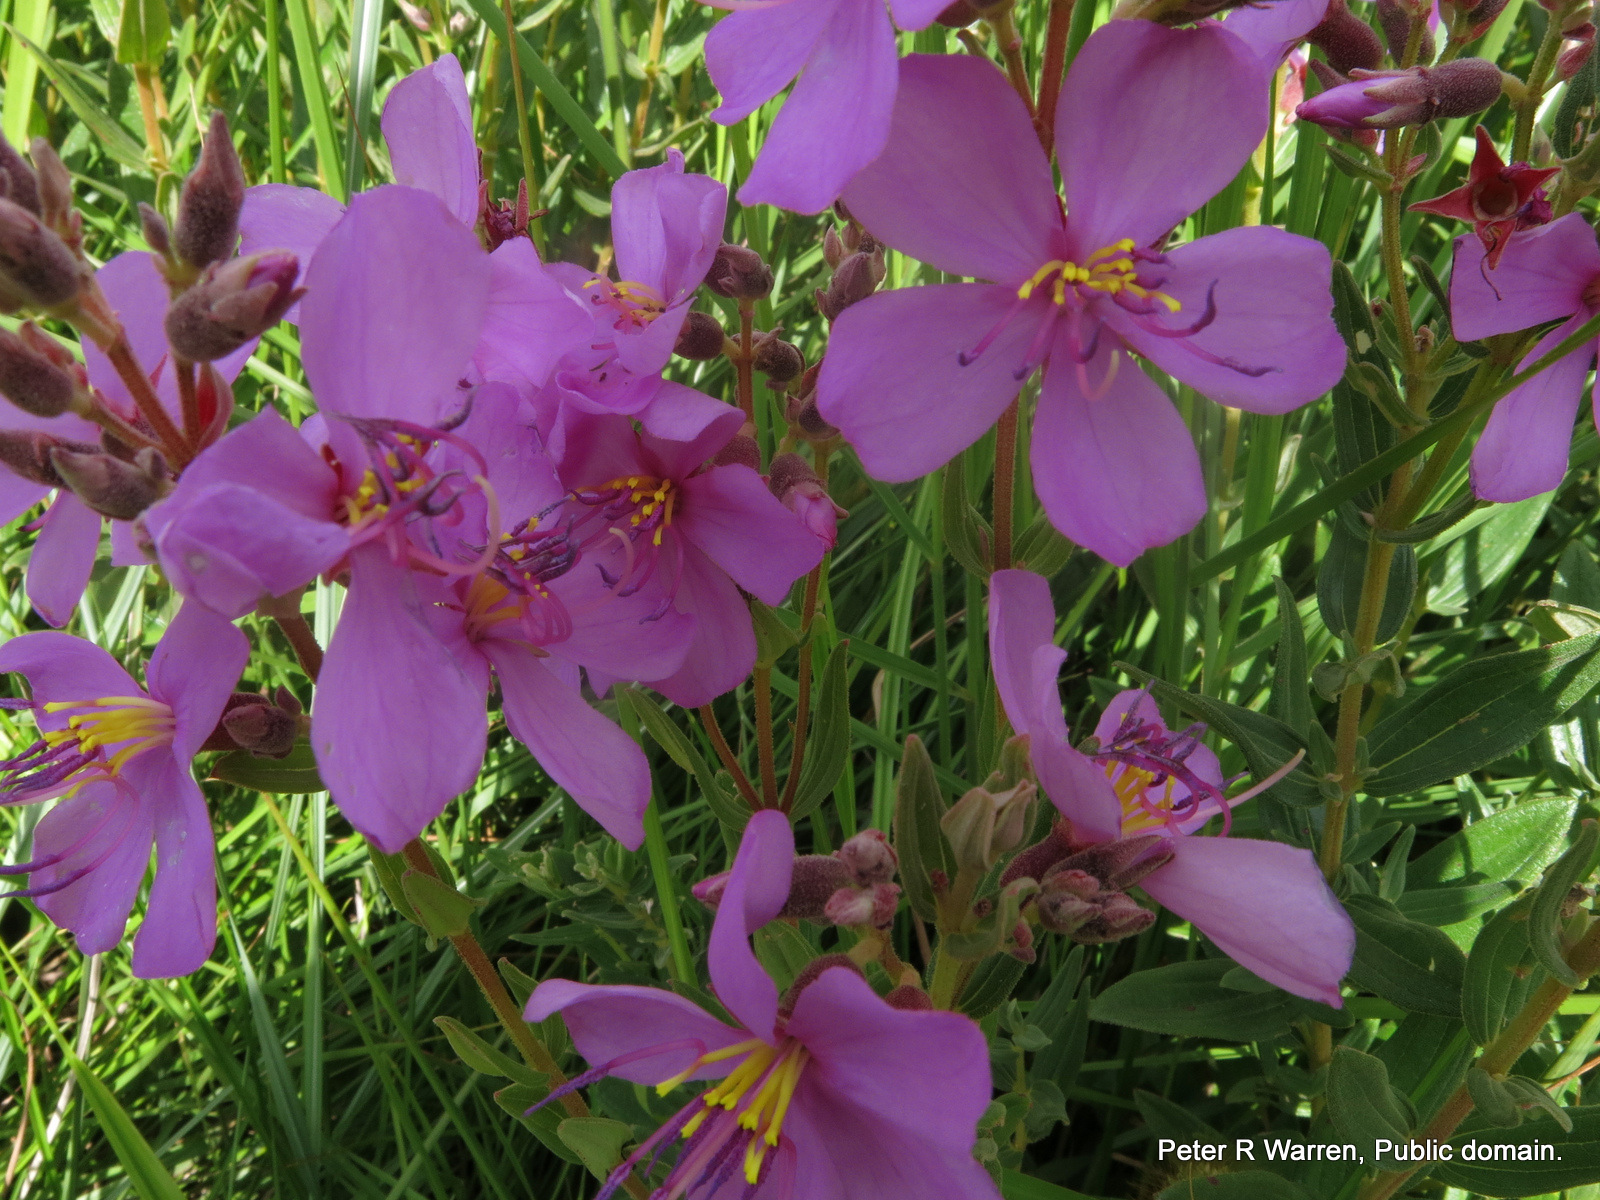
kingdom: Plantae
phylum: Tracheophyta
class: Magnoliopsida
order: Myrtales
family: Melastomataceae
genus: Argyrella
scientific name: Argyrella canescens
